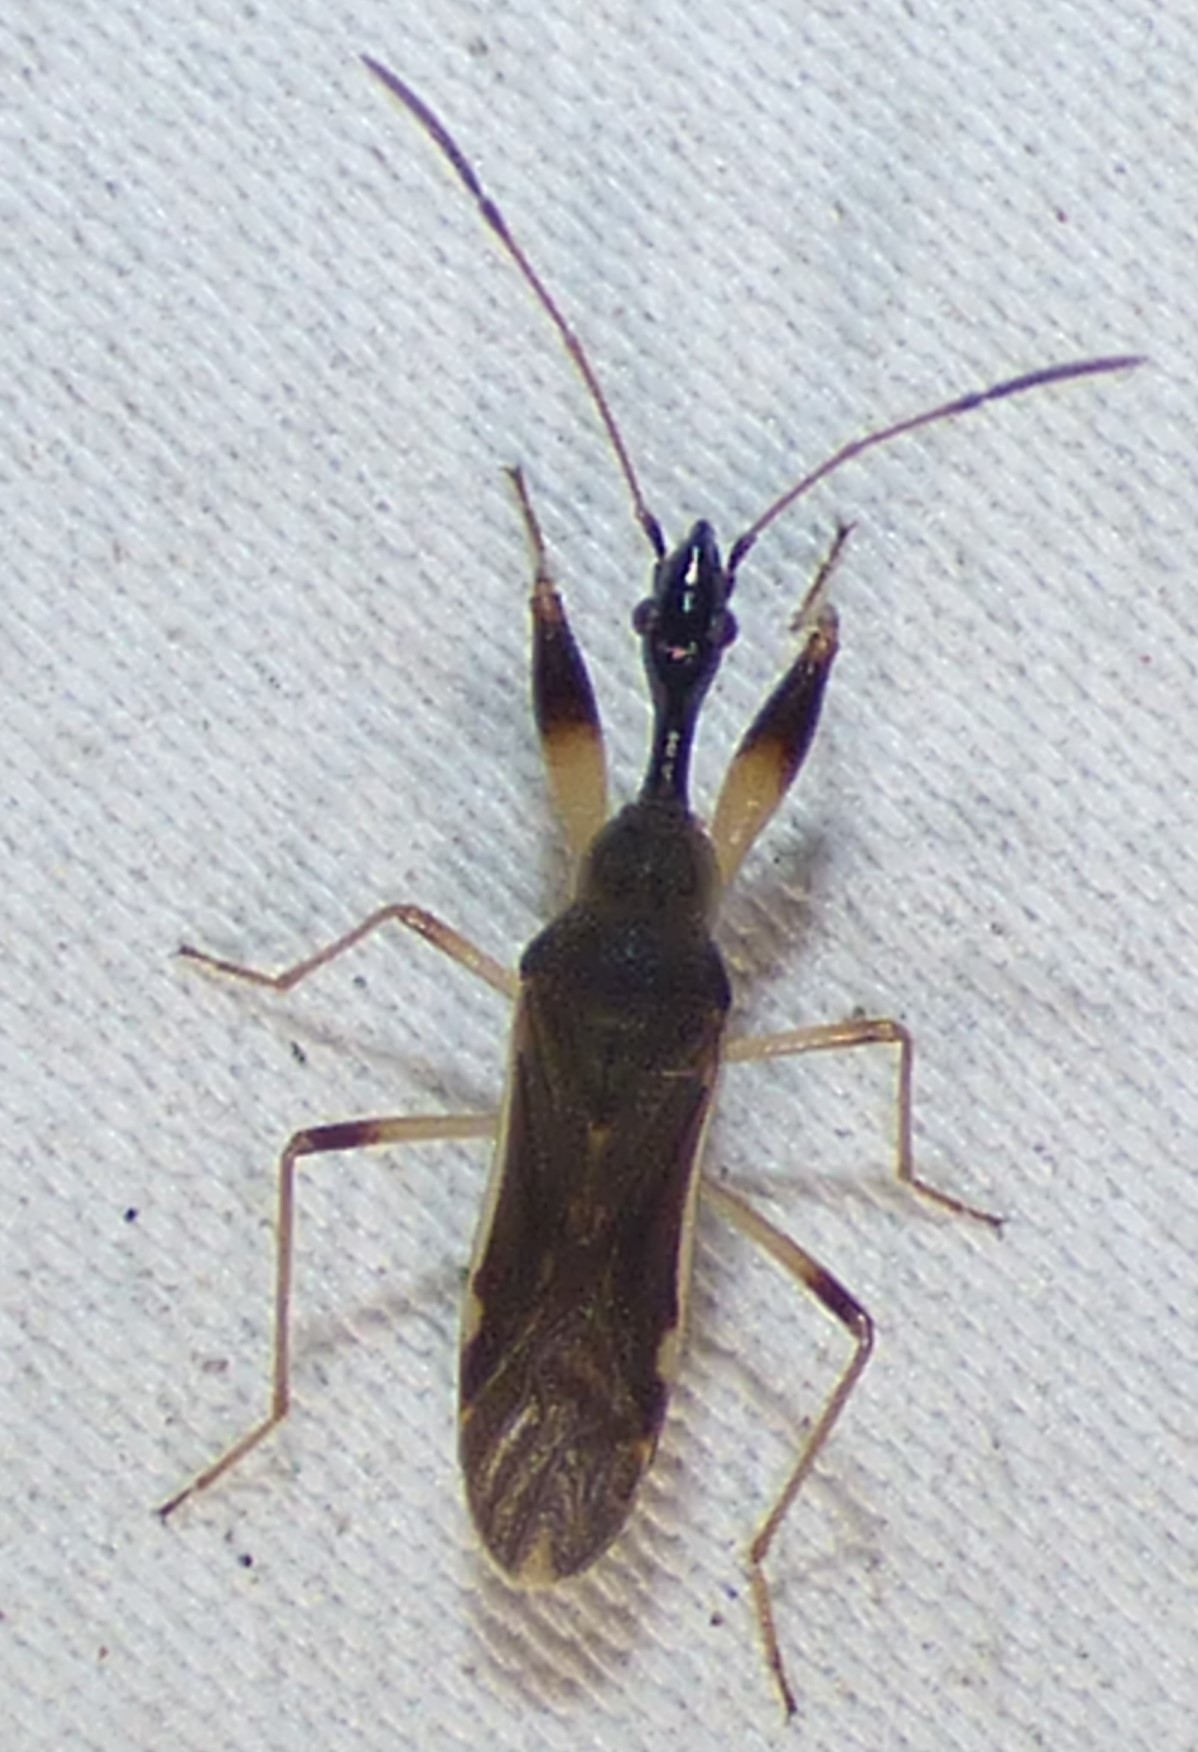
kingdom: Animalia
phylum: Arthropoda
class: Insecta
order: Hemiptera
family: Rhyparochromidae
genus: Myodocha
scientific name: Myodocha serripes
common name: Long-necked seed bug
